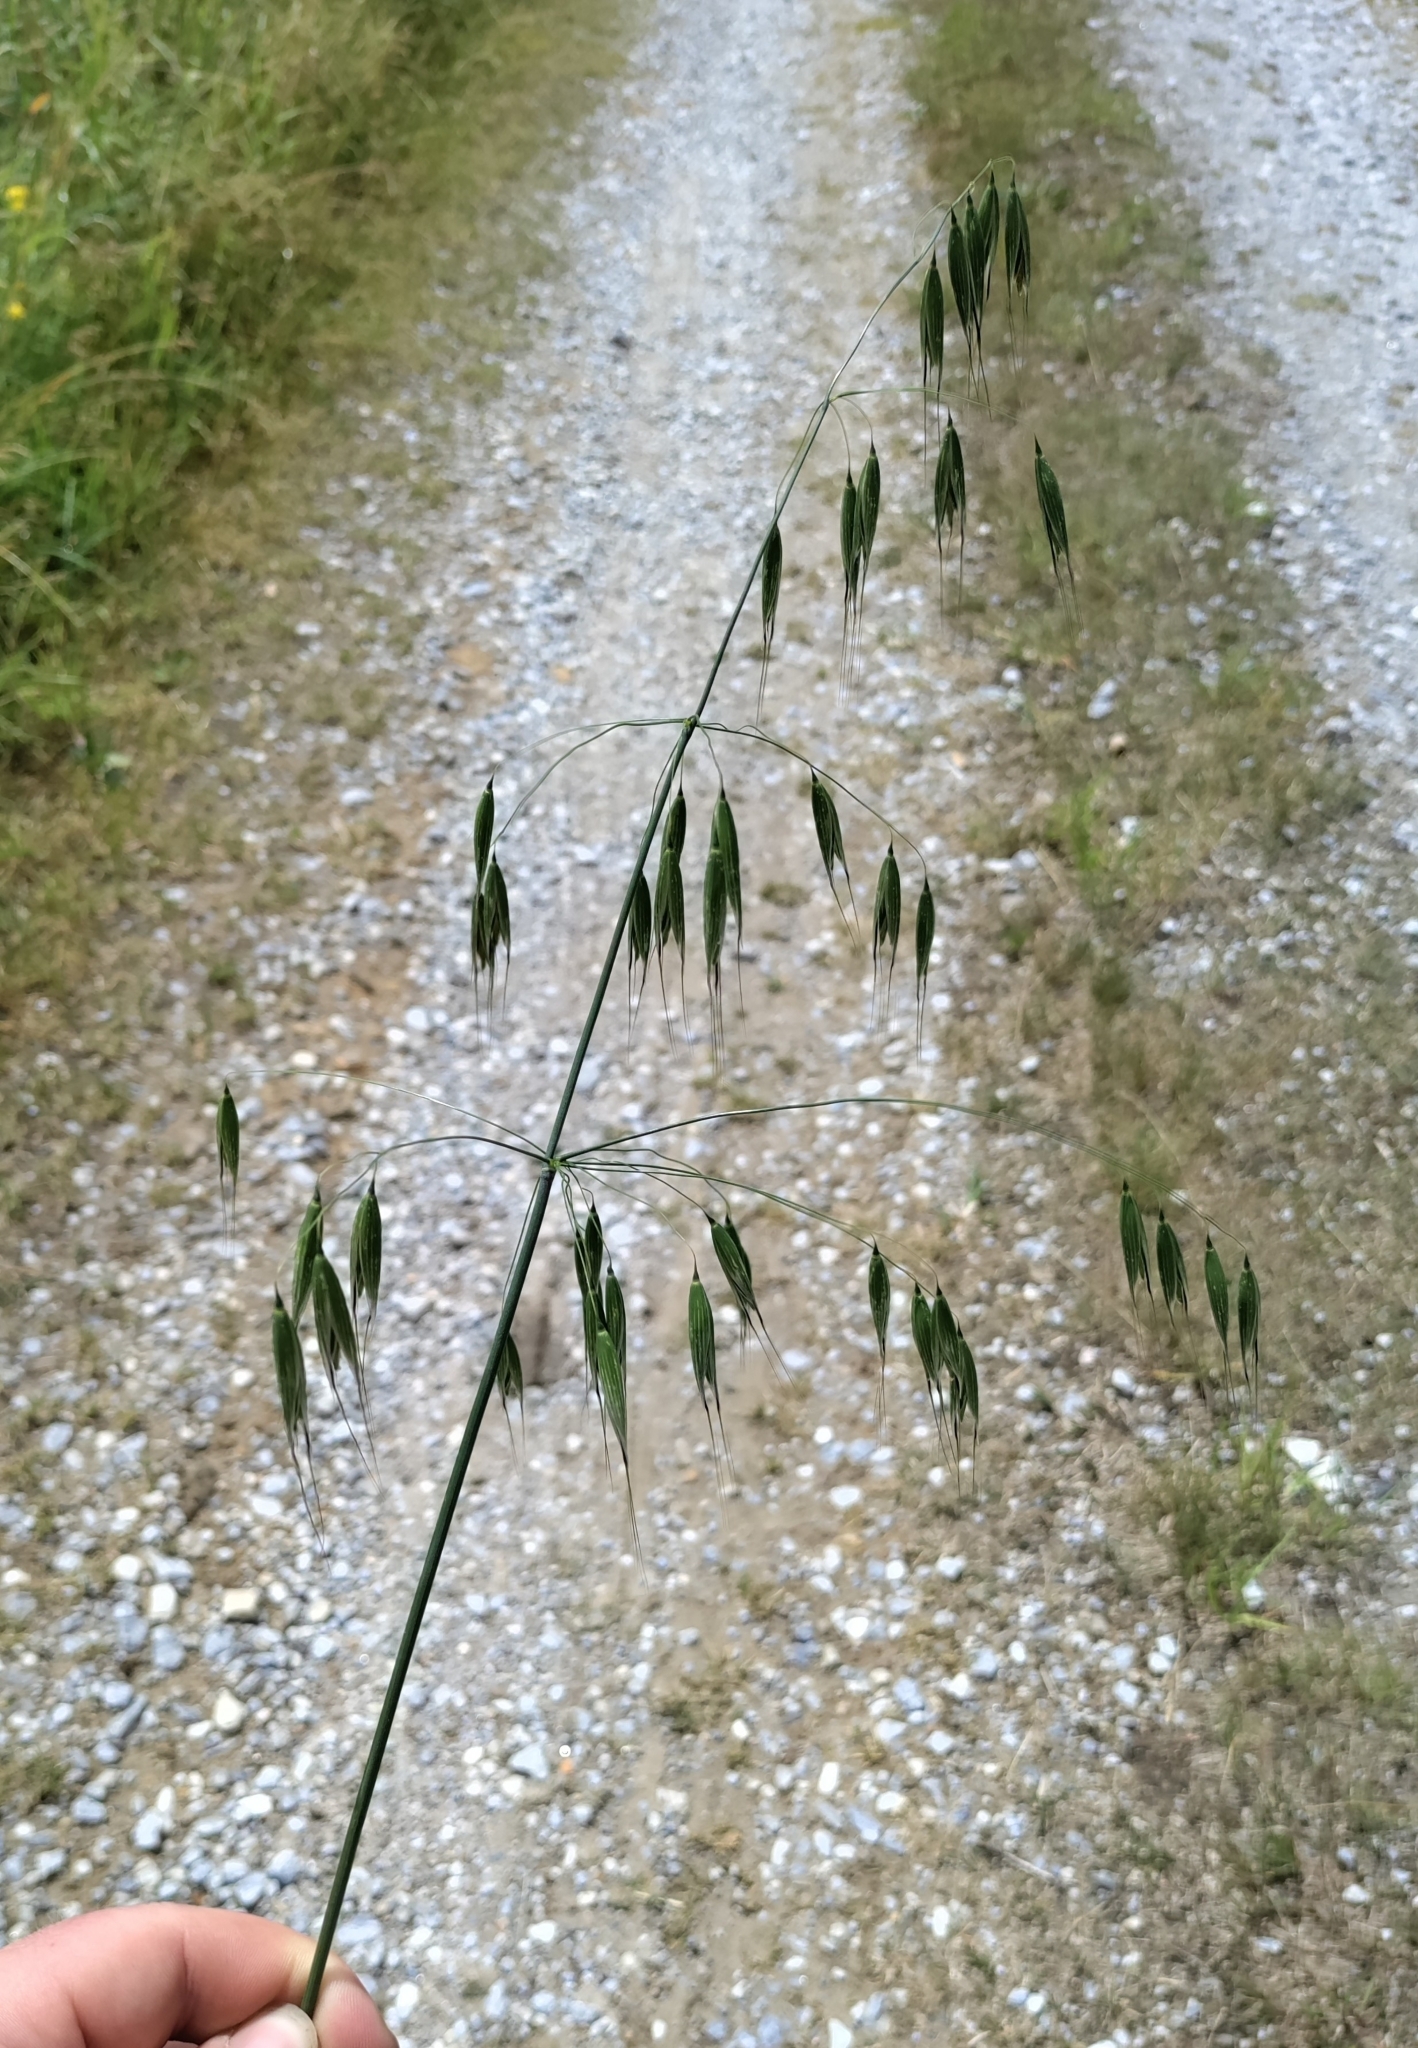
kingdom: Plantae
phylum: Tracheophyta
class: Liliopsida
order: Poales
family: Poaceae
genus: Avena
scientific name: Avena fatua
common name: Wild oat
